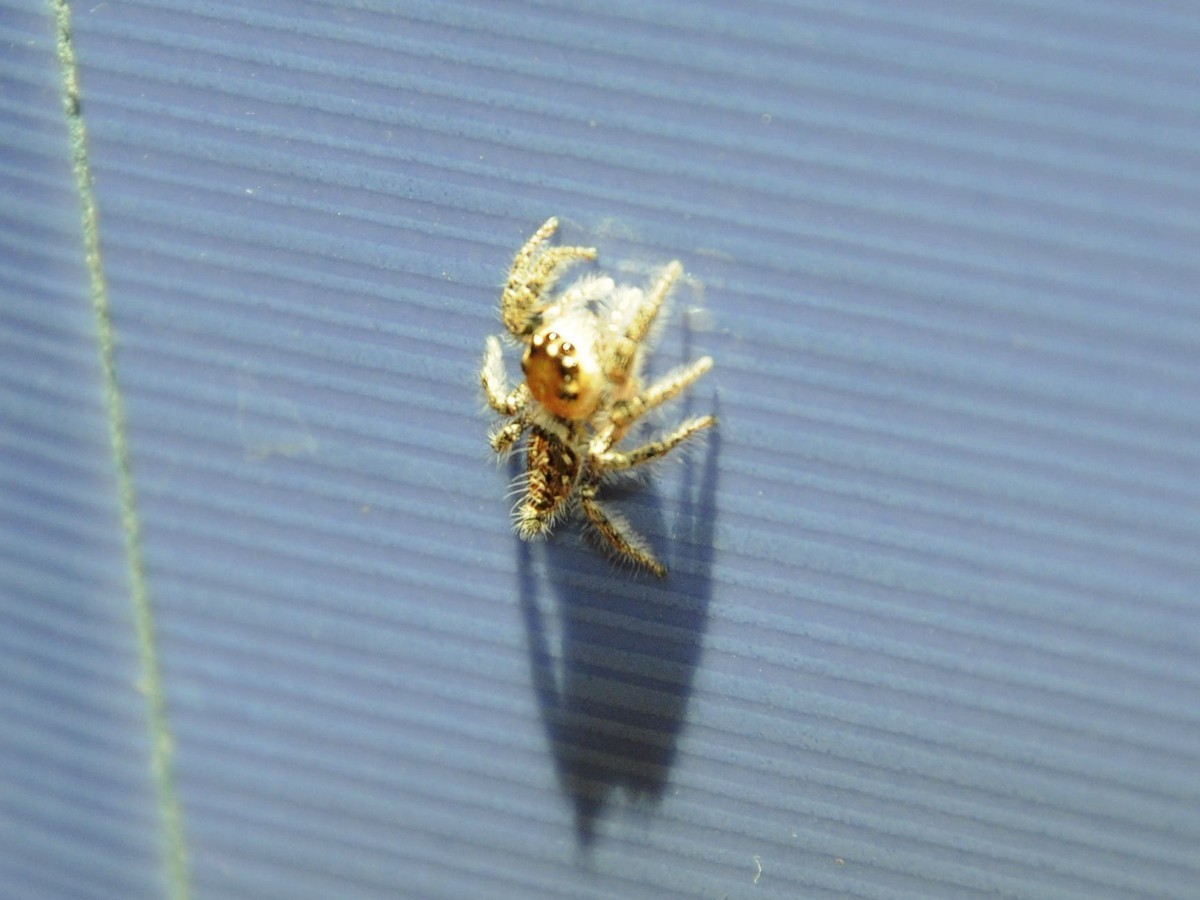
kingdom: Animalia
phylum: Arthropoda
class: Arachnida
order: Araneae
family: Salticidae
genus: Hyllus
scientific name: Hyllus semicupreus
